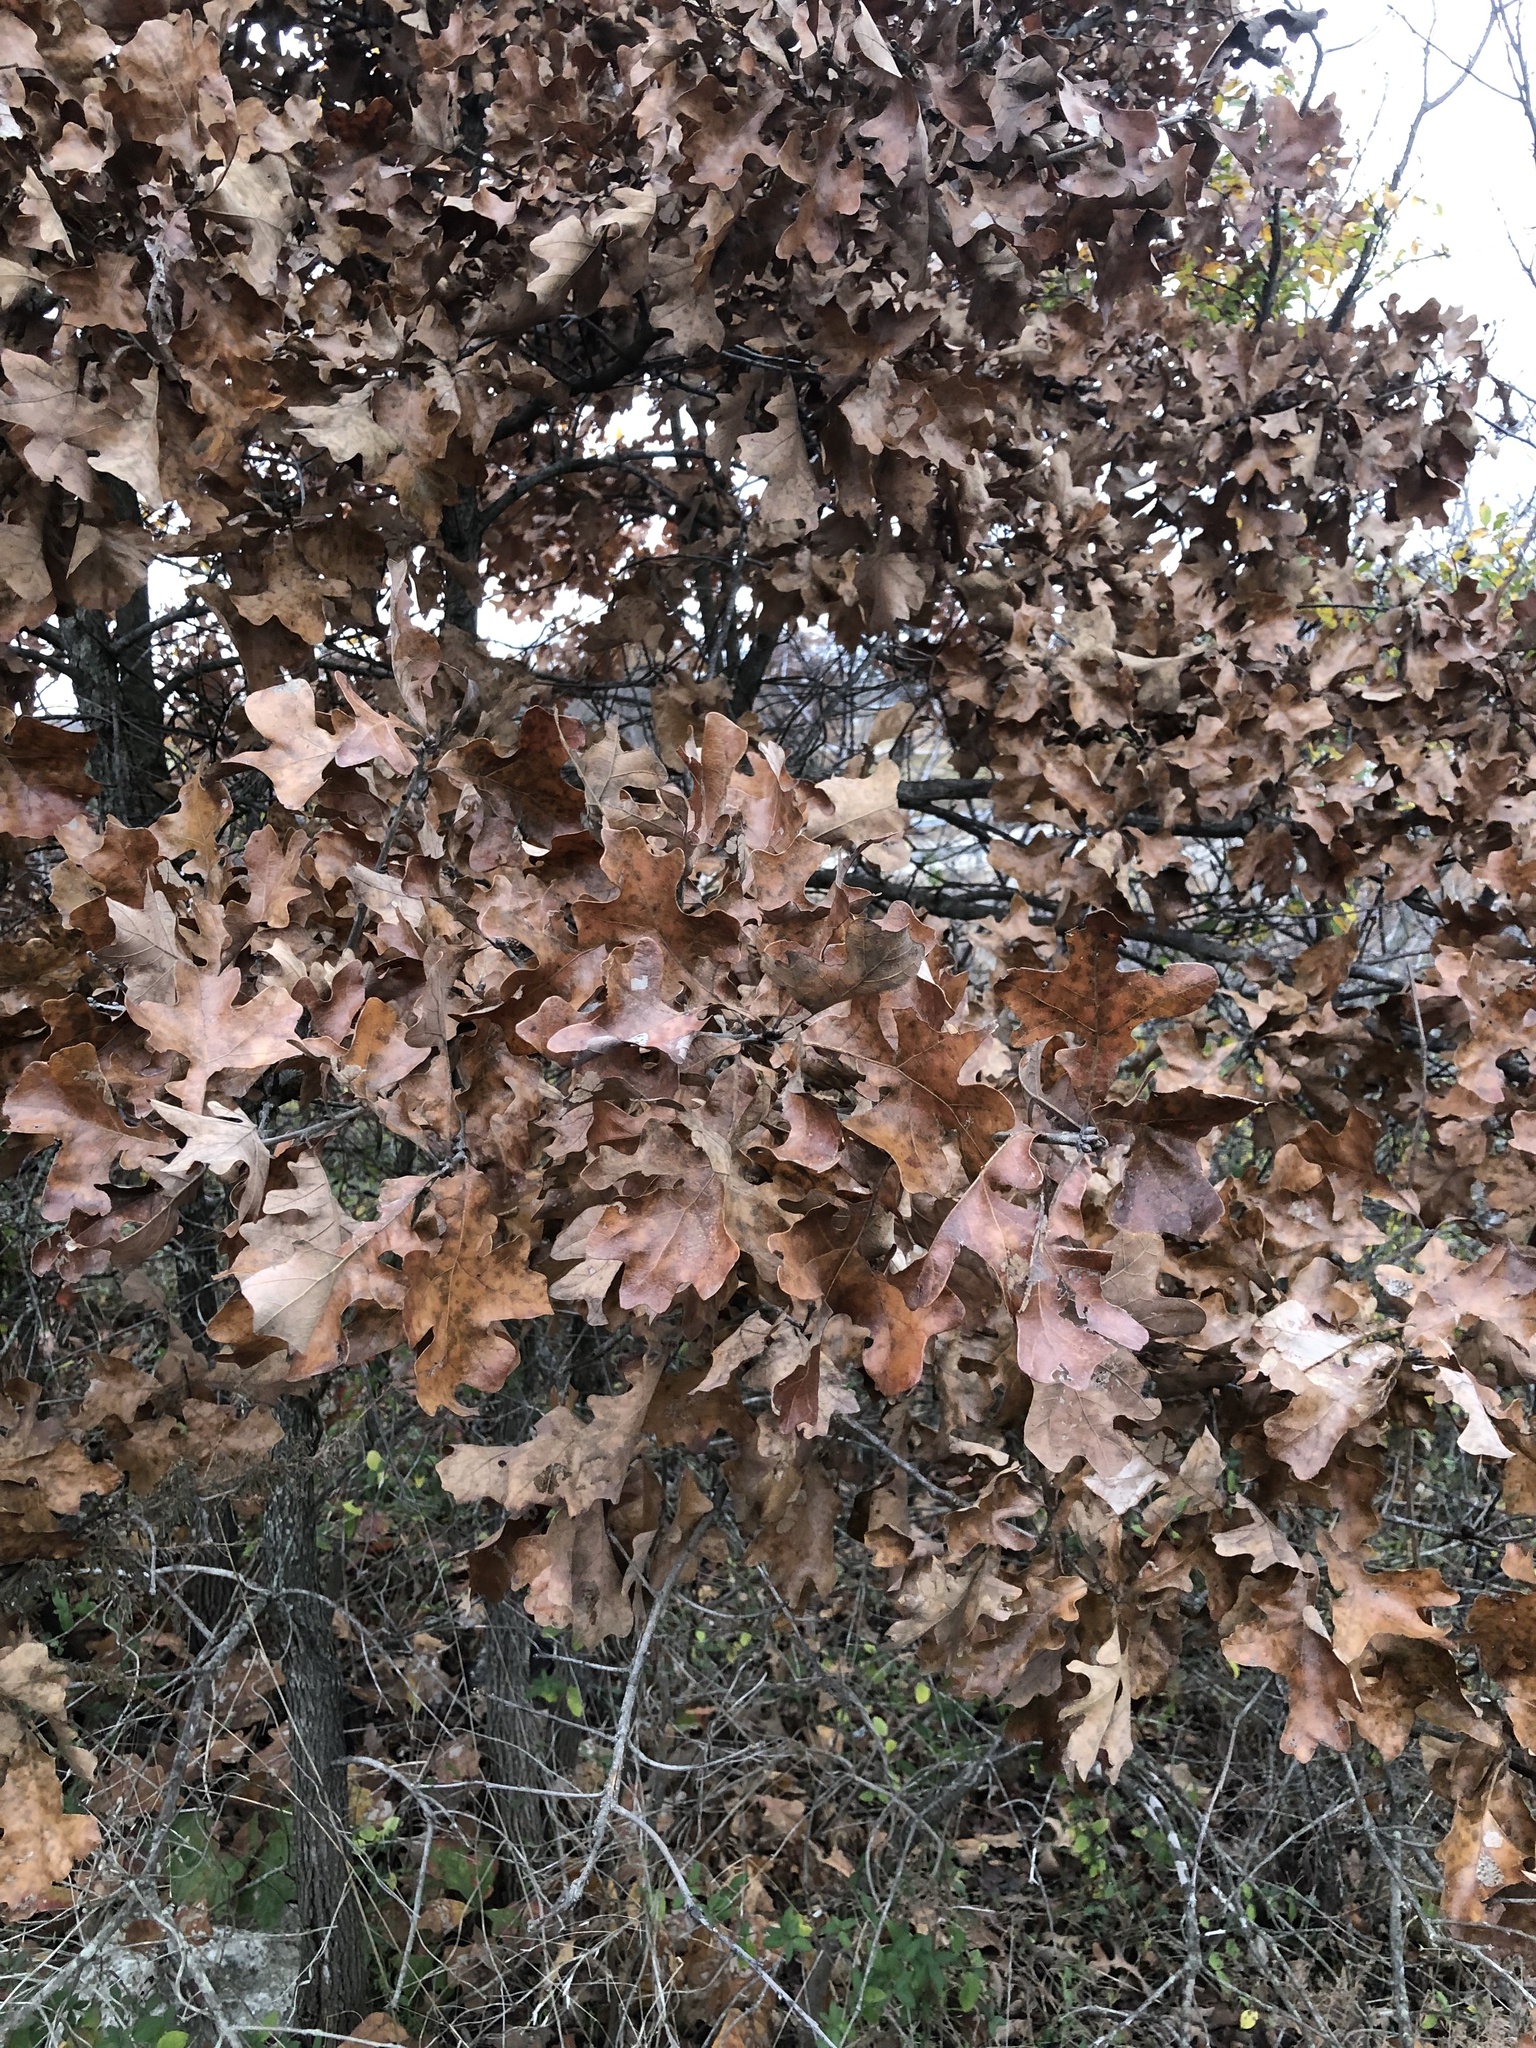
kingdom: Plantae
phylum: Tracheophyta
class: Magnoliopsida
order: Fagales
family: Fagaceae
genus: Quercus
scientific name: Quercus stellata
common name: Post oak
